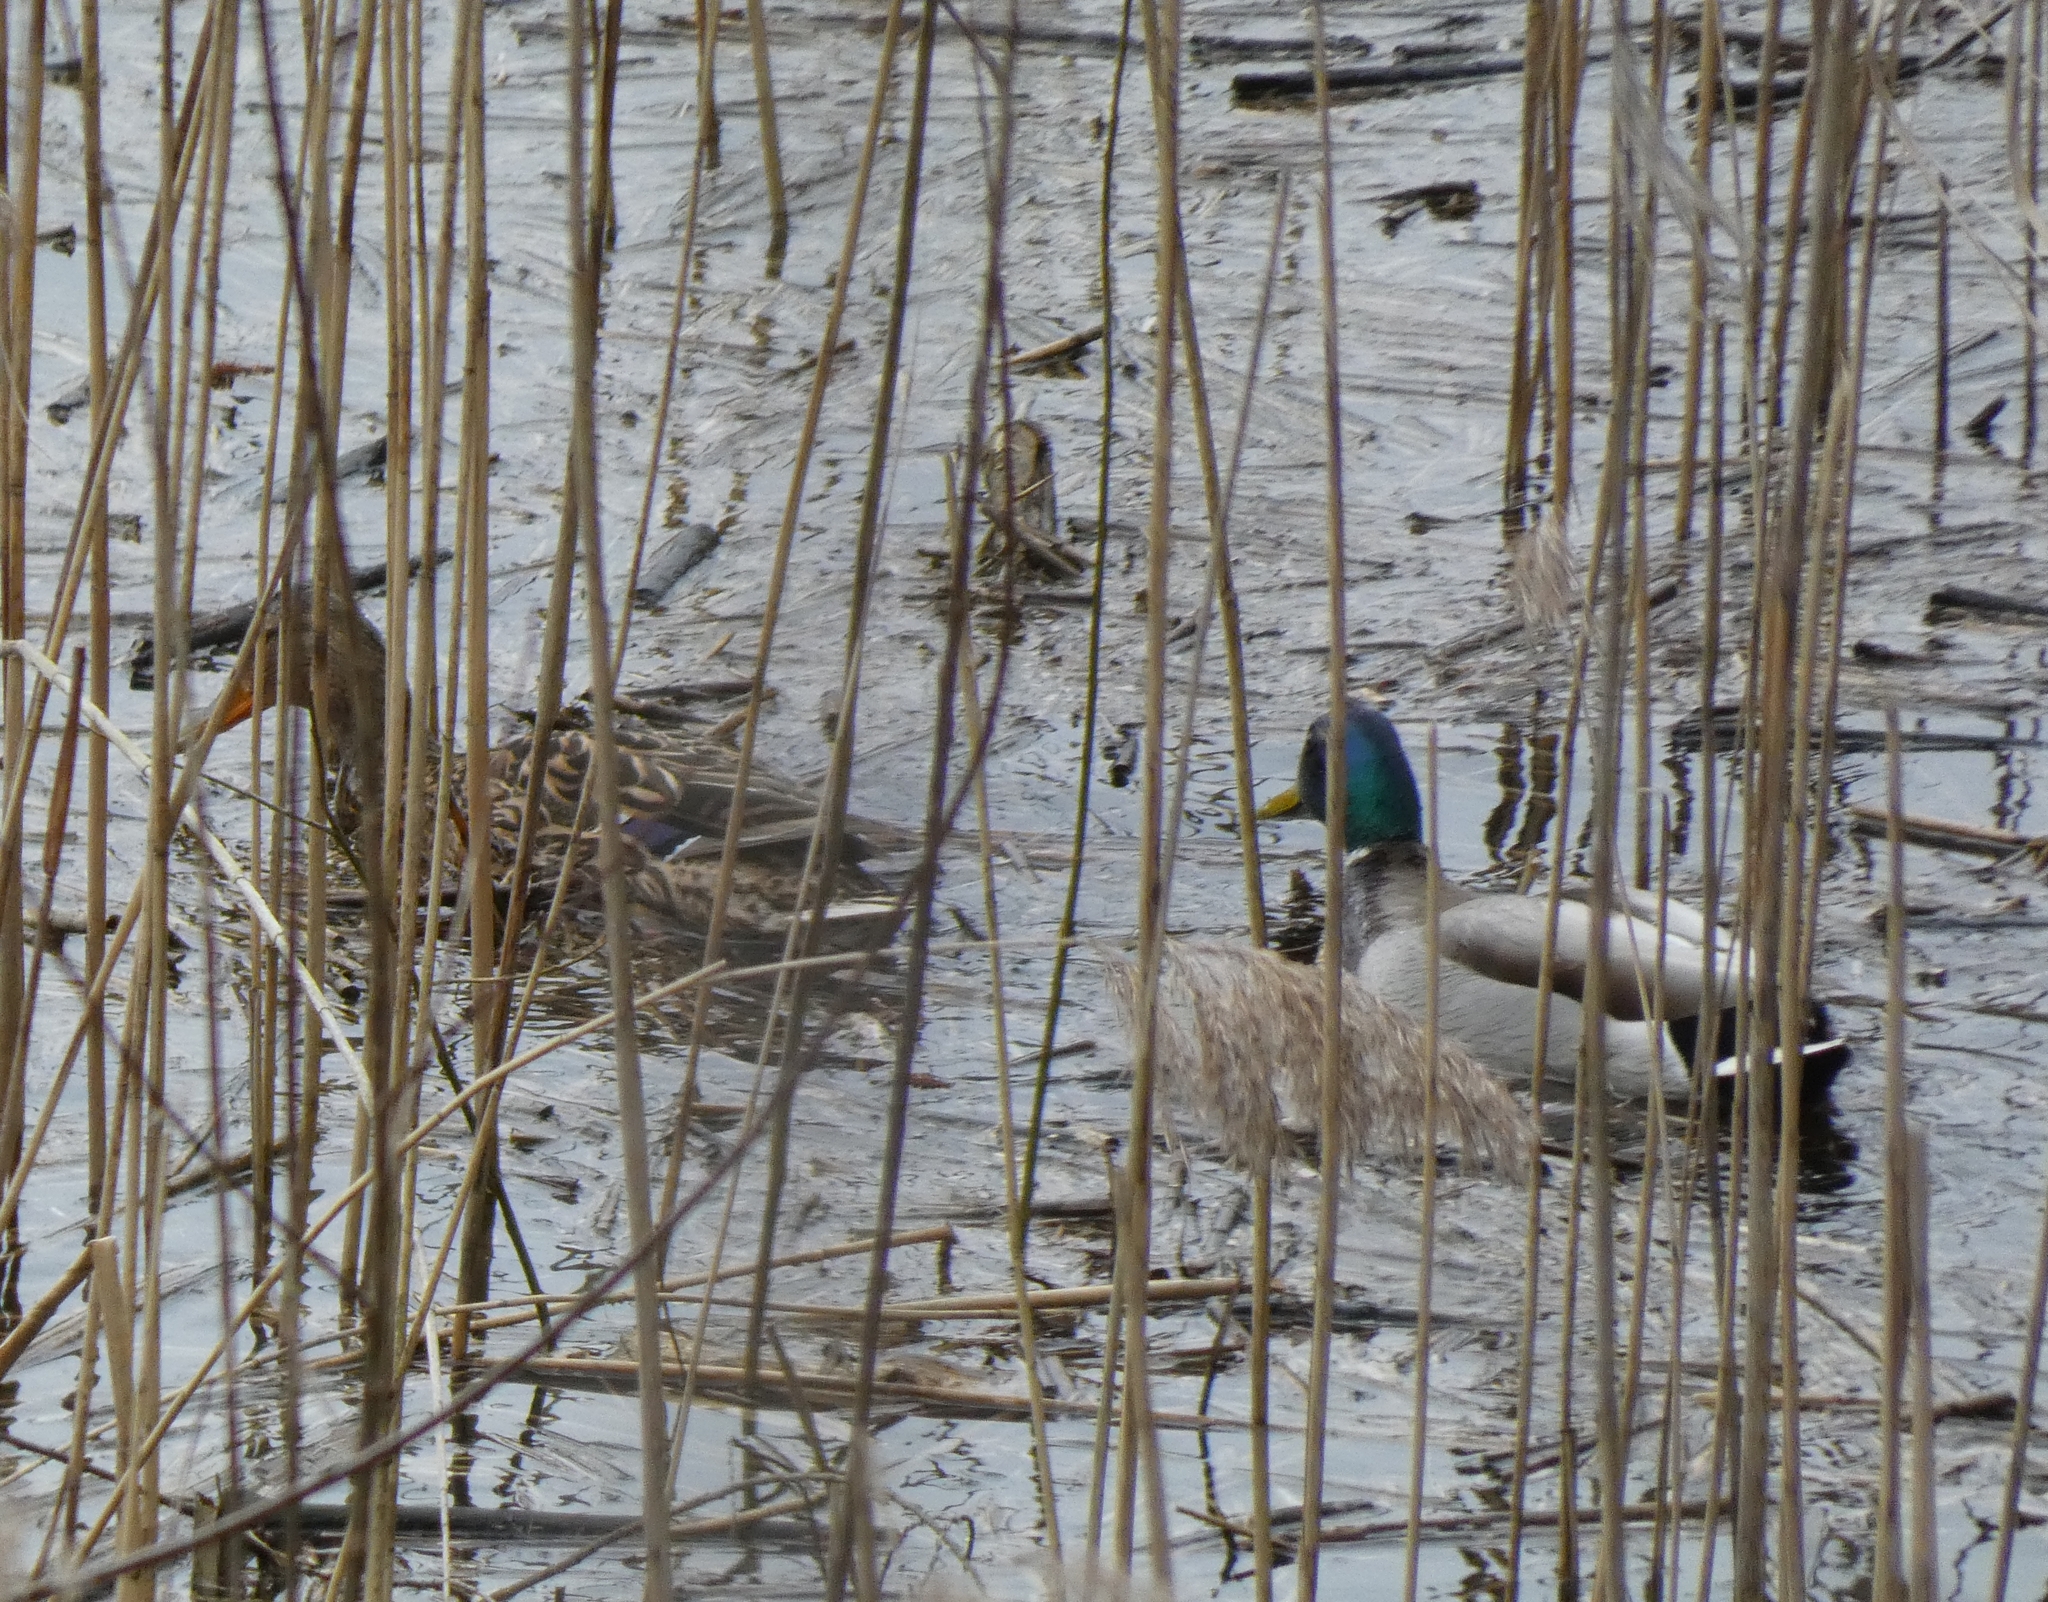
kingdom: Animalia
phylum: Chordata
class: Aves
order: Anseriformes
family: Anatidae
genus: Anas
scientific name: Anas platyrhynchos
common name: Mallard
